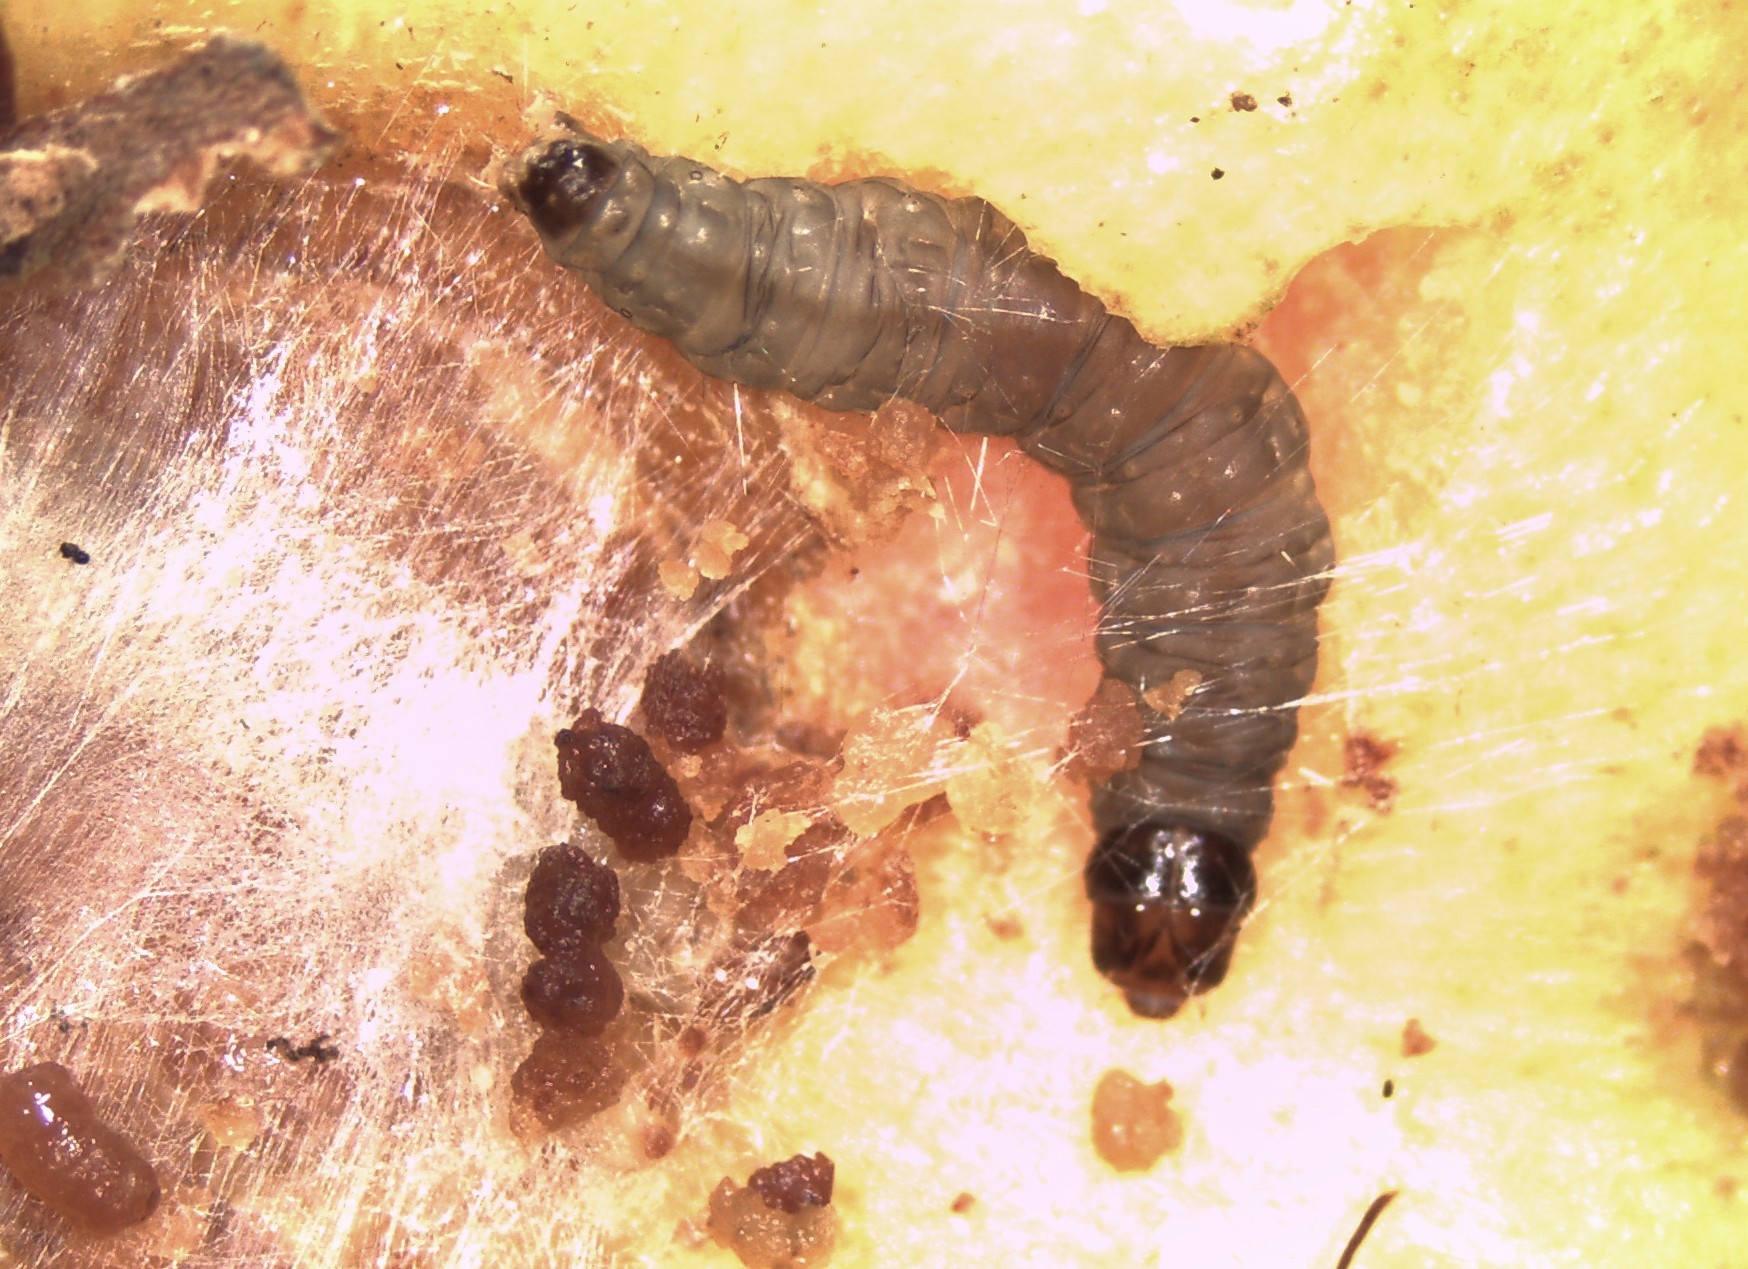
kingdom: Animalia
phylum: Arthropoda
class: Insecta
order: Lepidoptera
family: Tortricidae
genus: Strepsicrates
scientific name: Strepsicrates ejectana
